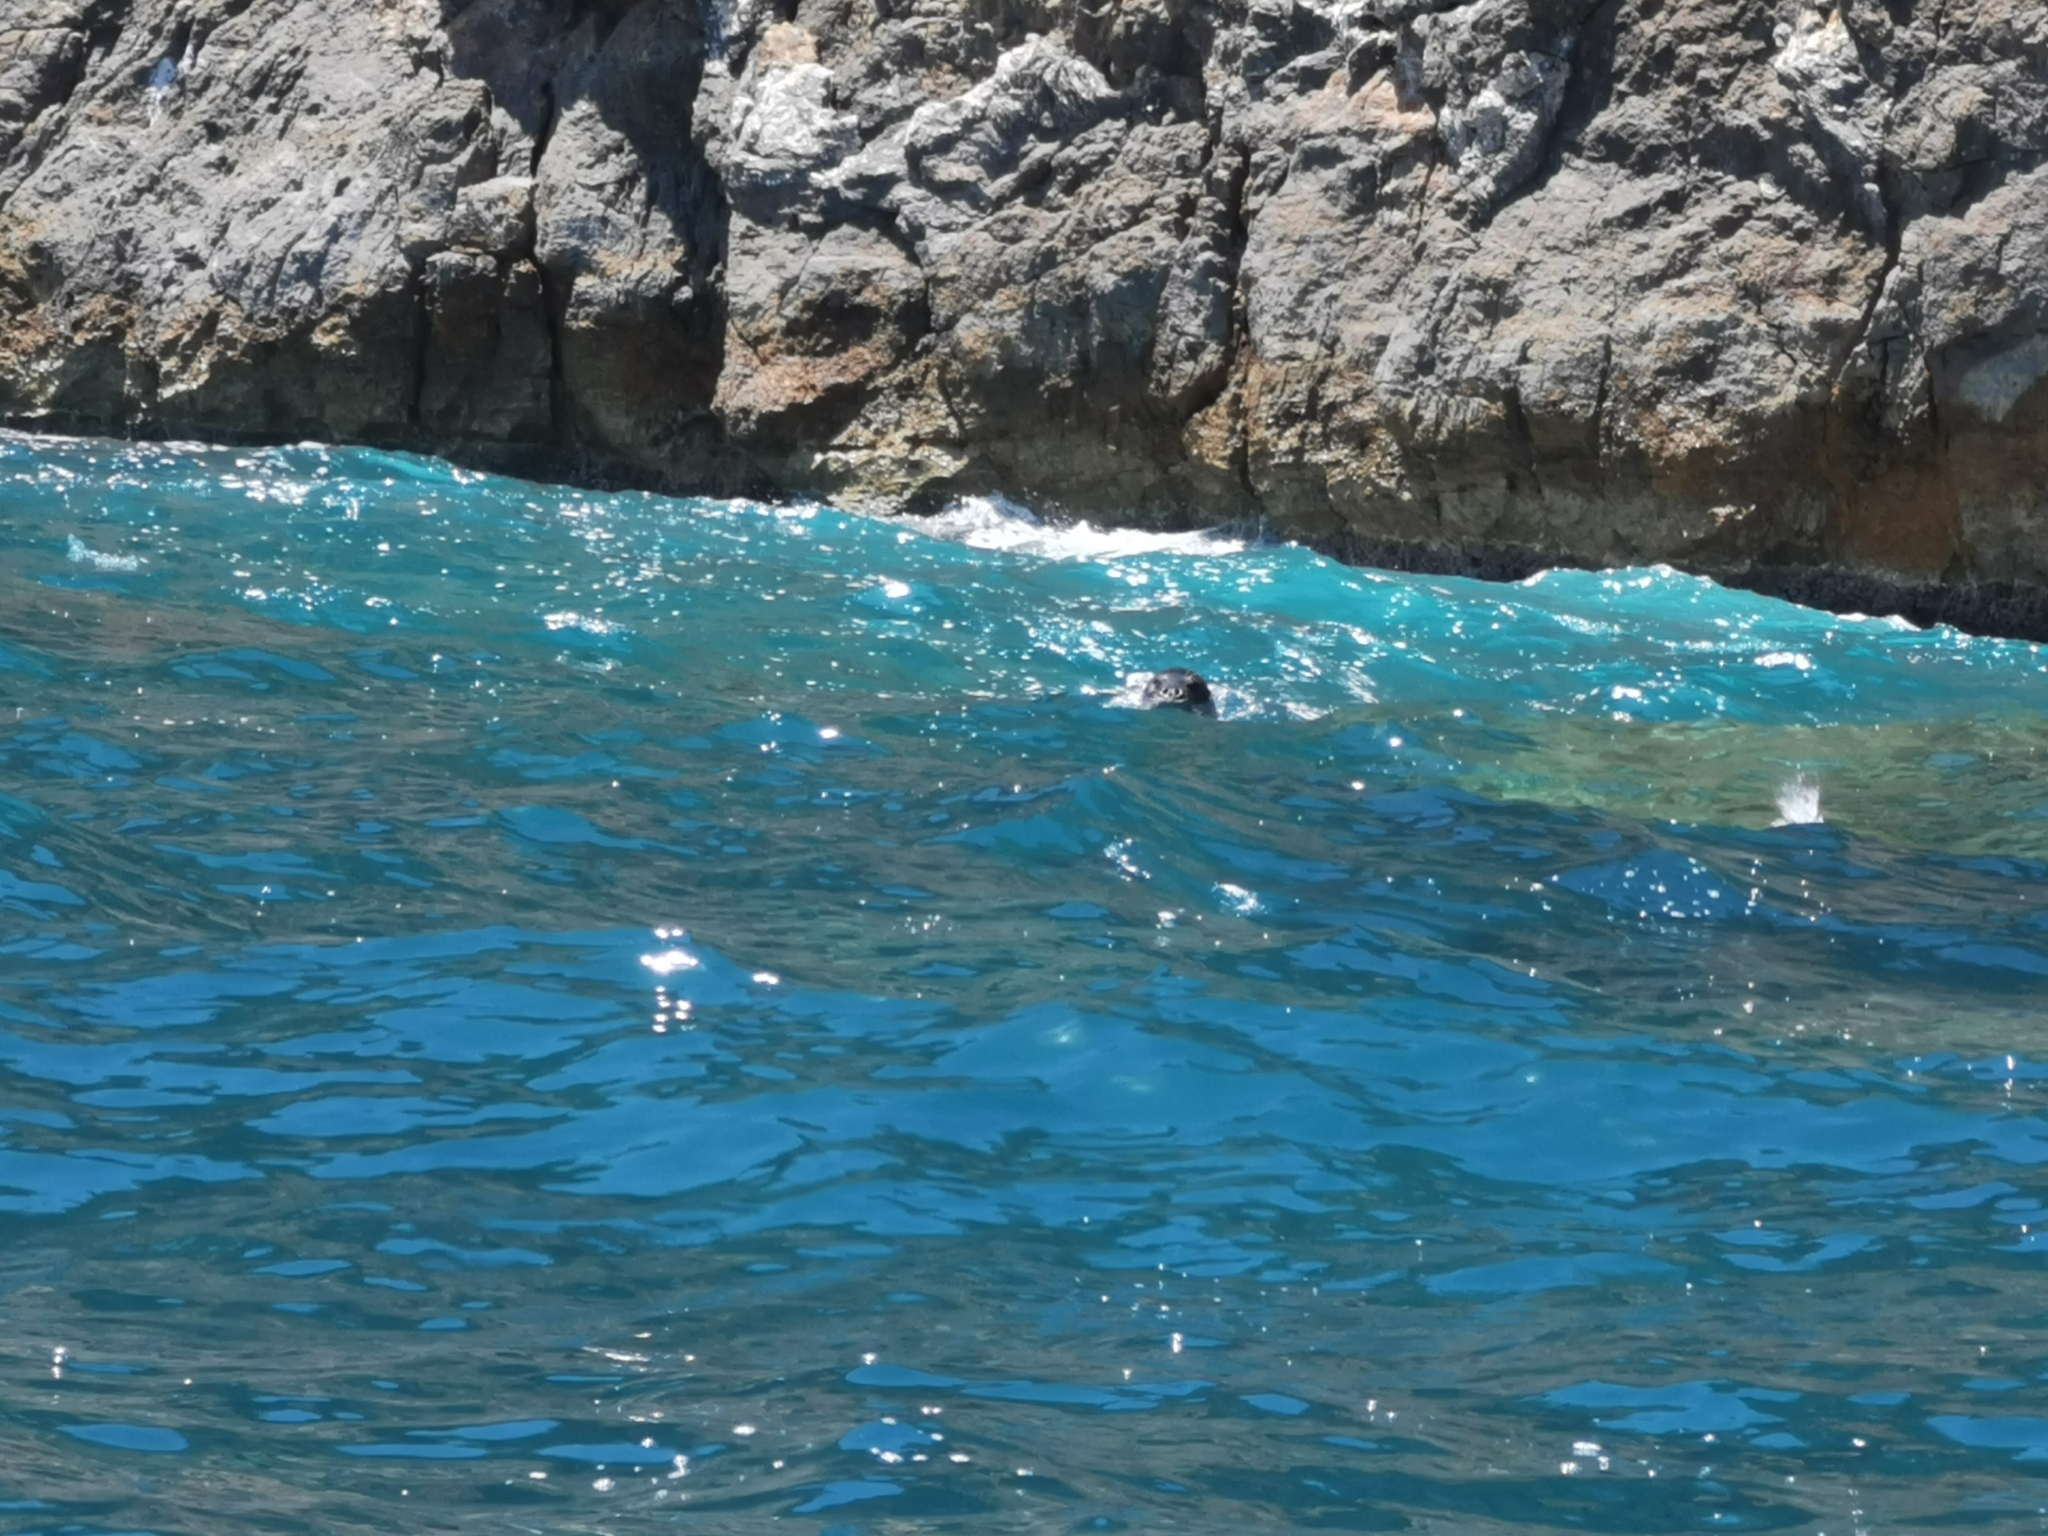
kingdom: Animalia
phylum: Chordata
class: Mammalia
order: Carnivora
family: Phocidae
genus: Monachus
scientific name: Monachus monachus
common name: Mediterranean monk seal
